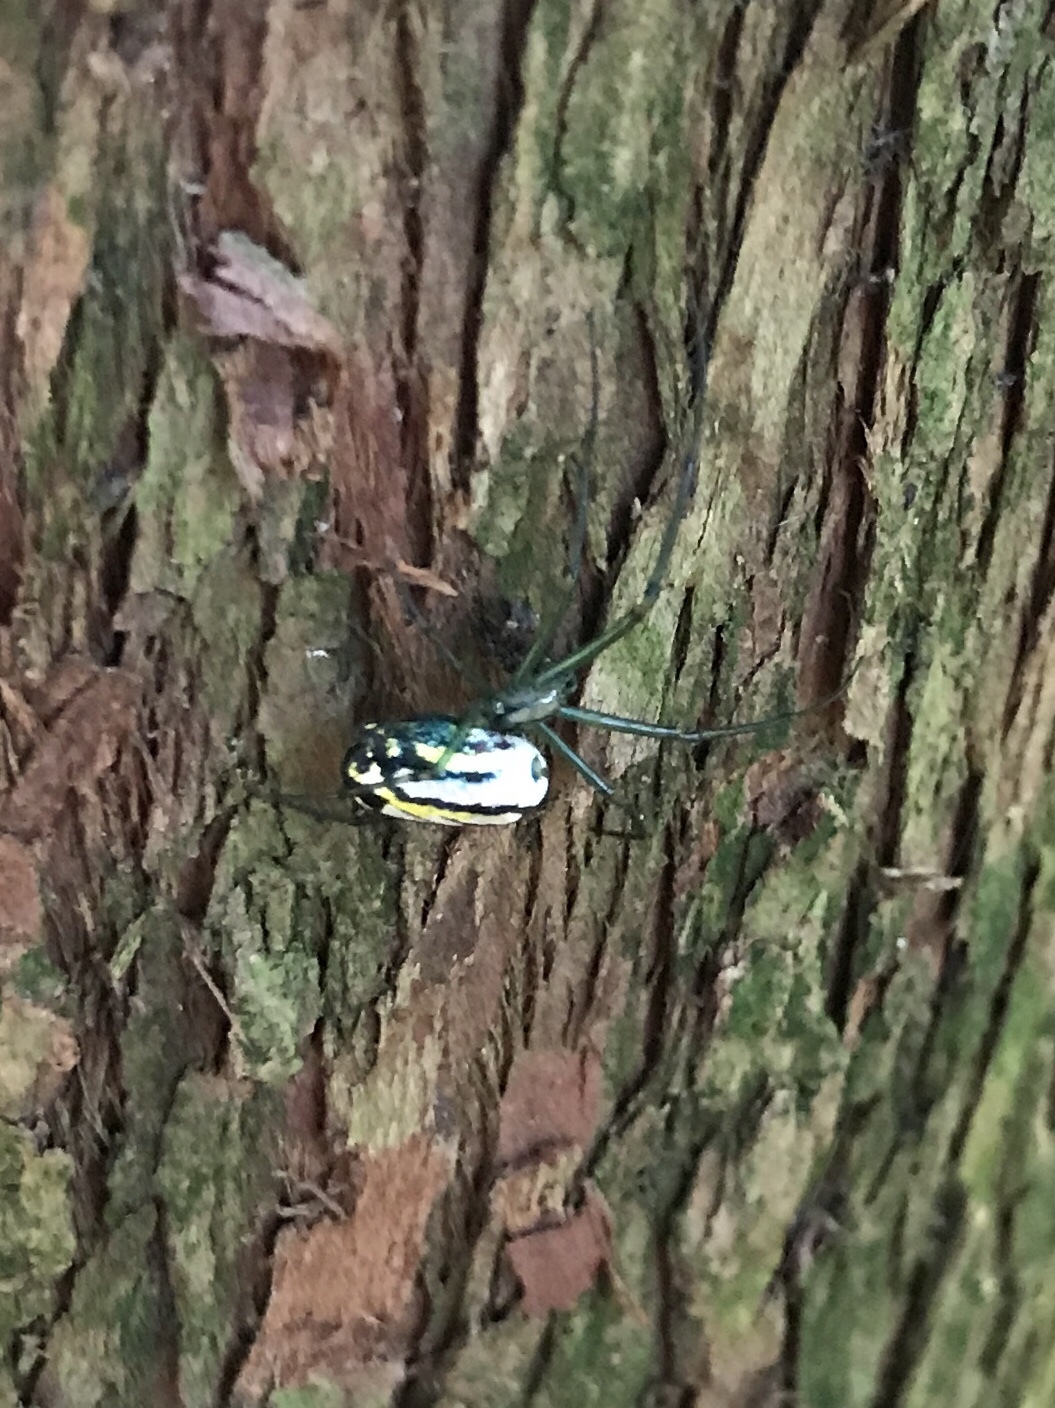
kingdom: Animalia
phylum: Arthropoda
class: Arachnida
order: Araneae
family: Tetragnathidae
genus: Leucauge
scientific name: Leucauge venusta
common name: Longjawed orb weavers
